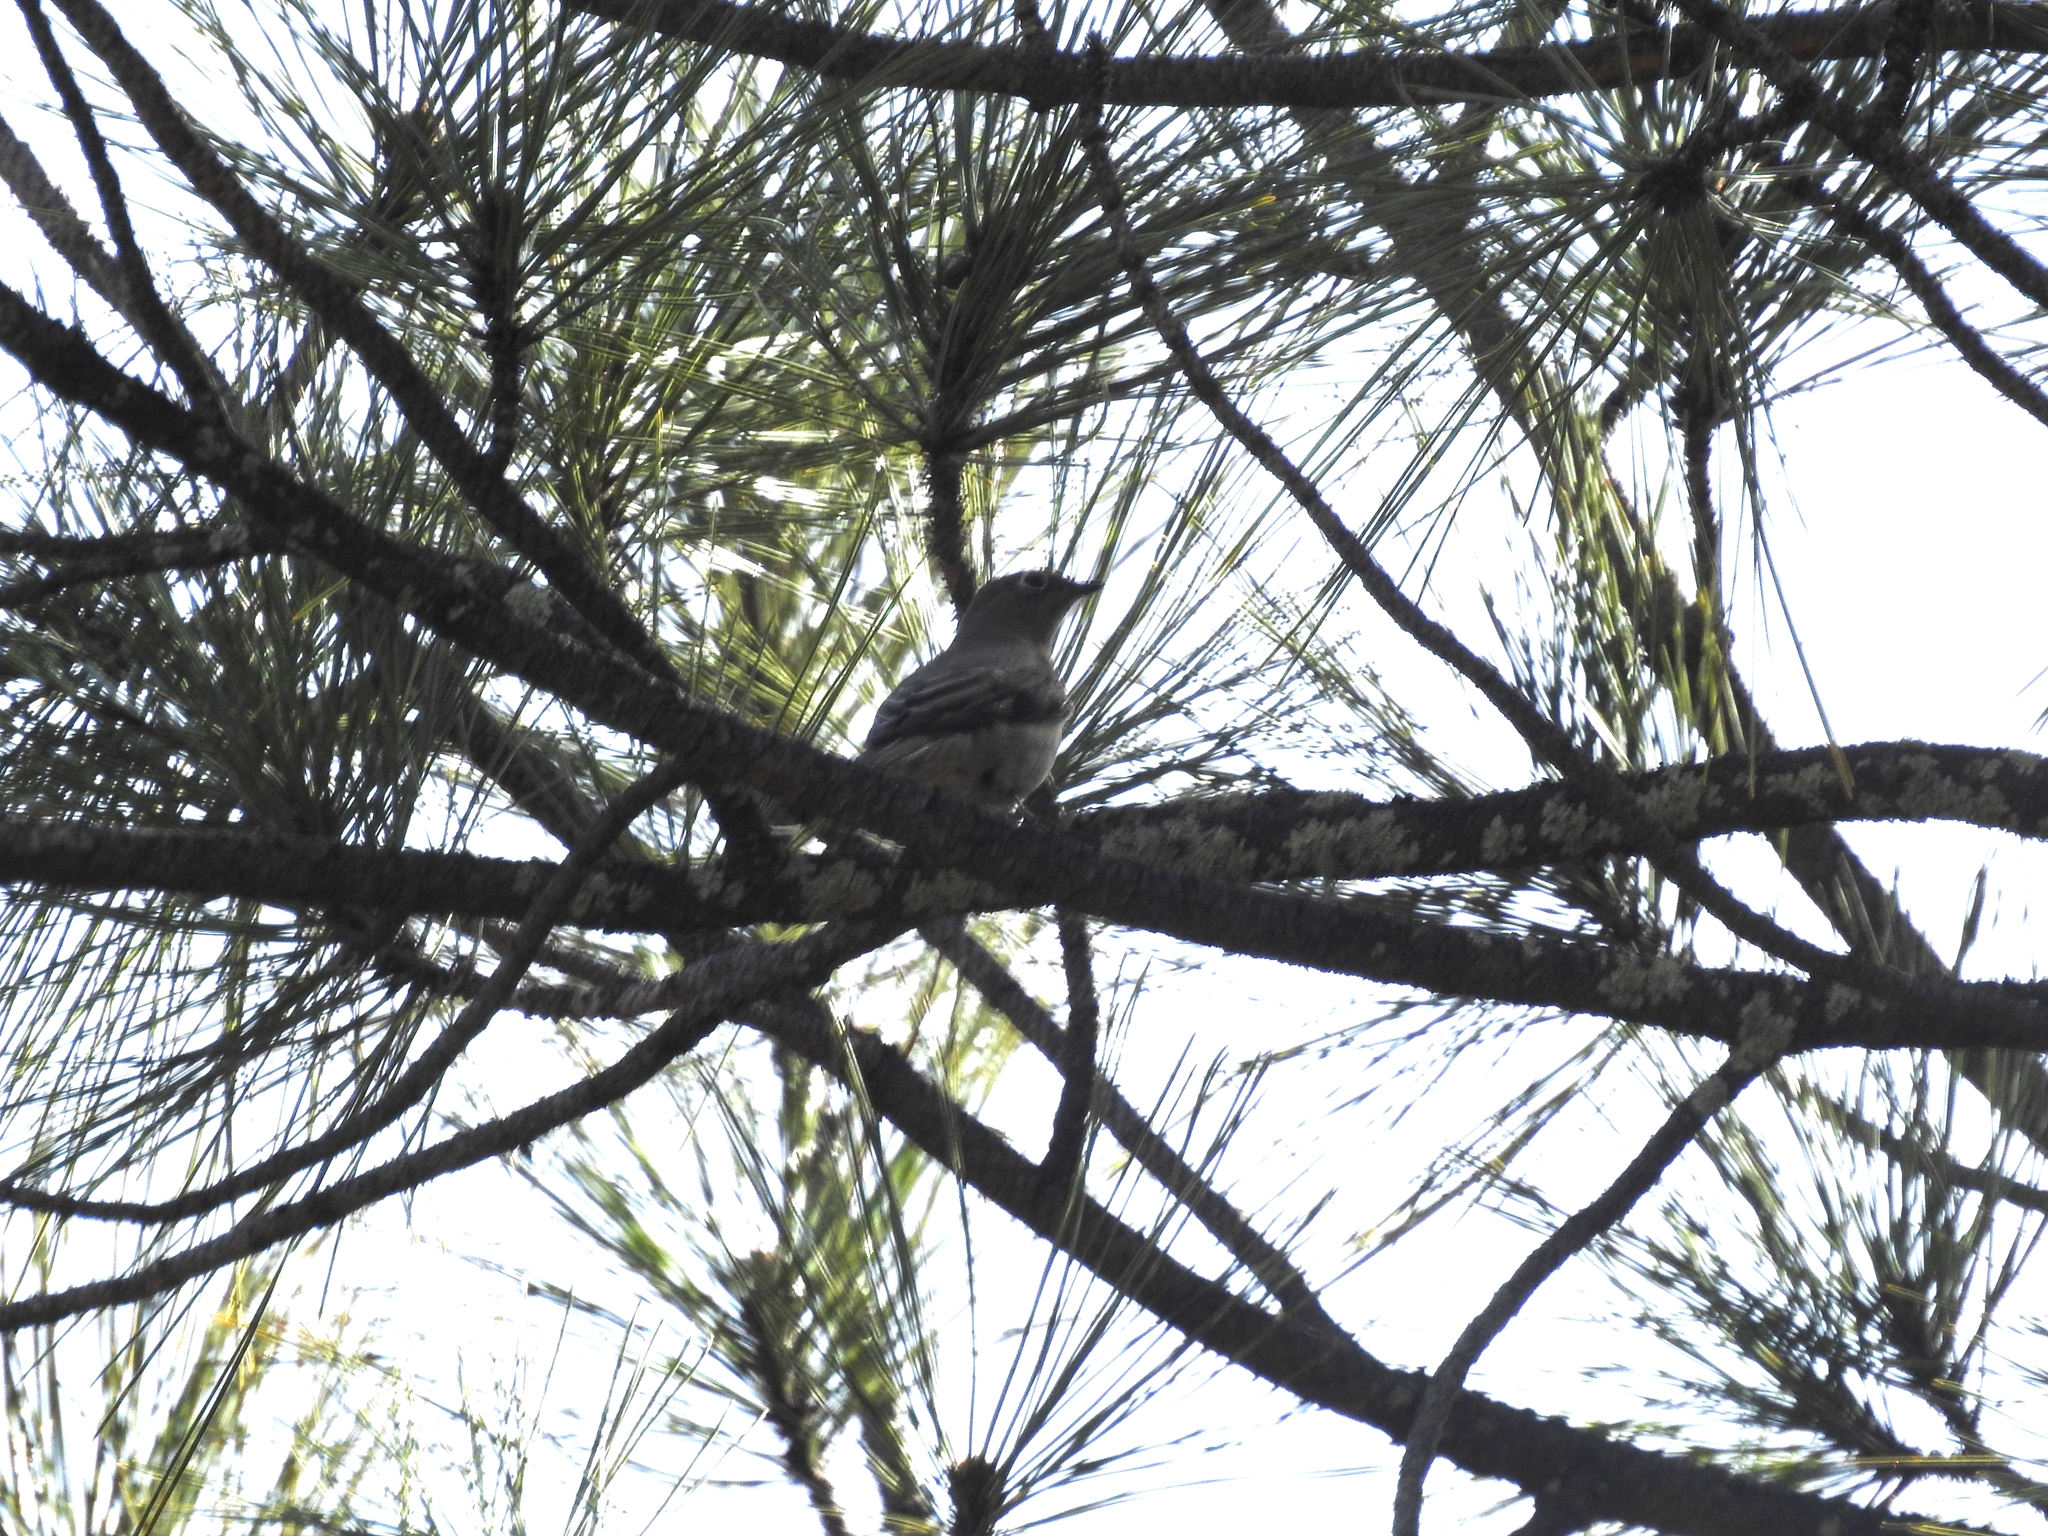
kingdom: Animalia
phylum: Chordata
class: Aves
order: Passeriformes
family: Turdidae
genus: Myadestes
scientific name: Myadestes townsendi
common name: Townsend's solitaire
